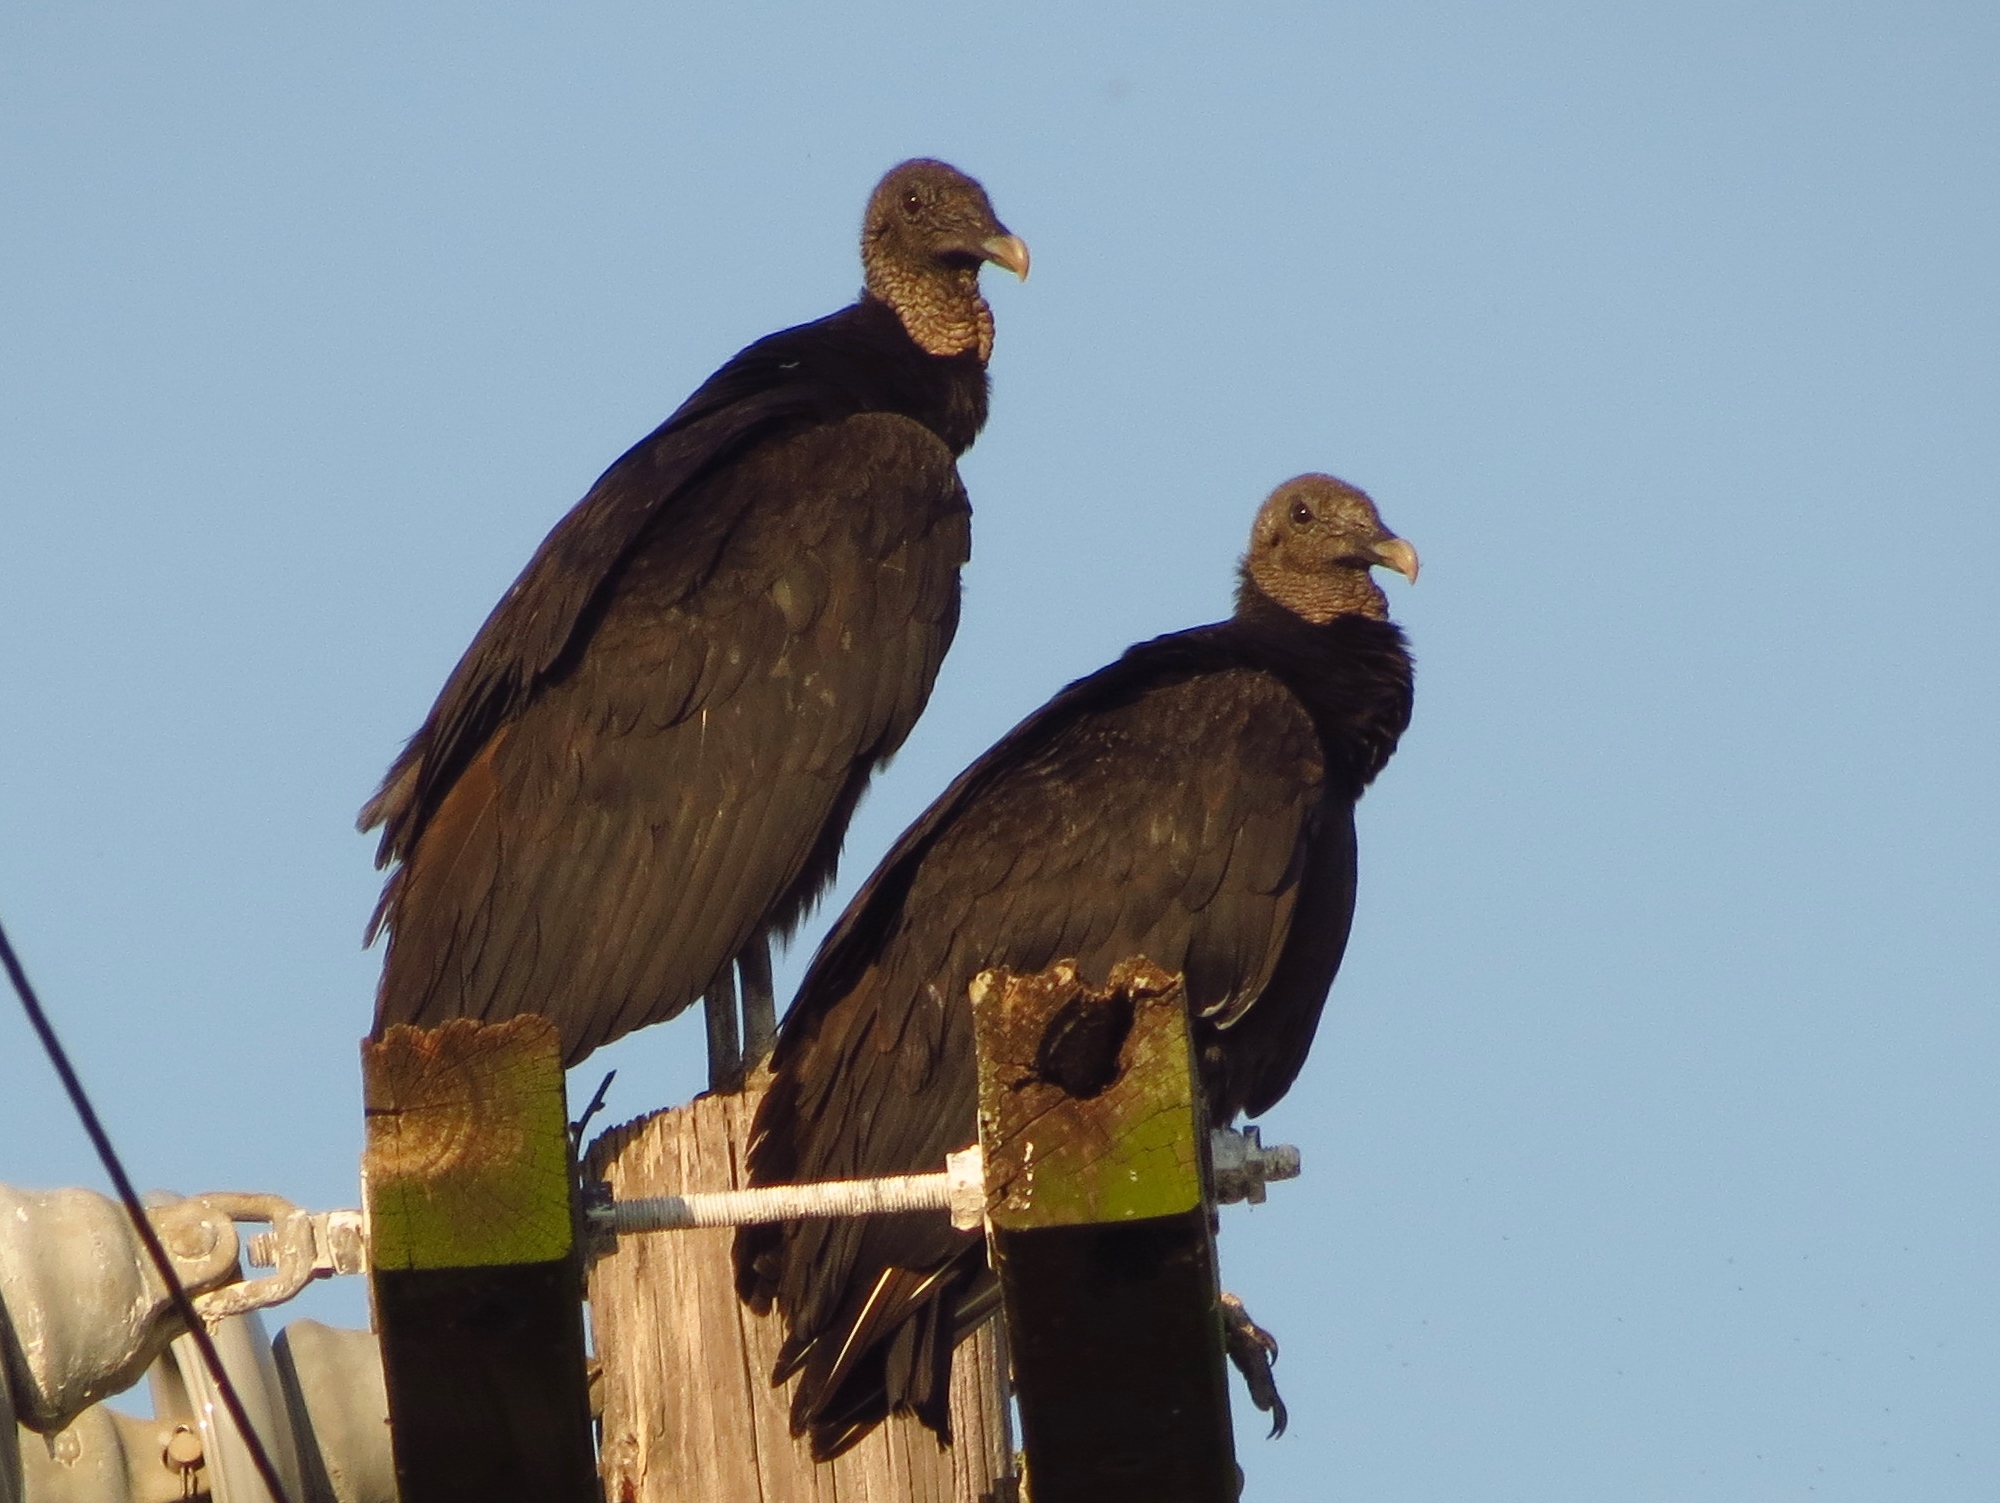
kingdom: Animalia
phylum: Chordata
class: Aves
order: Accipitriformes
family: Cathartidae
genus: Coragyps
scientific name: Coragyps atratus
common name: Black vulture
